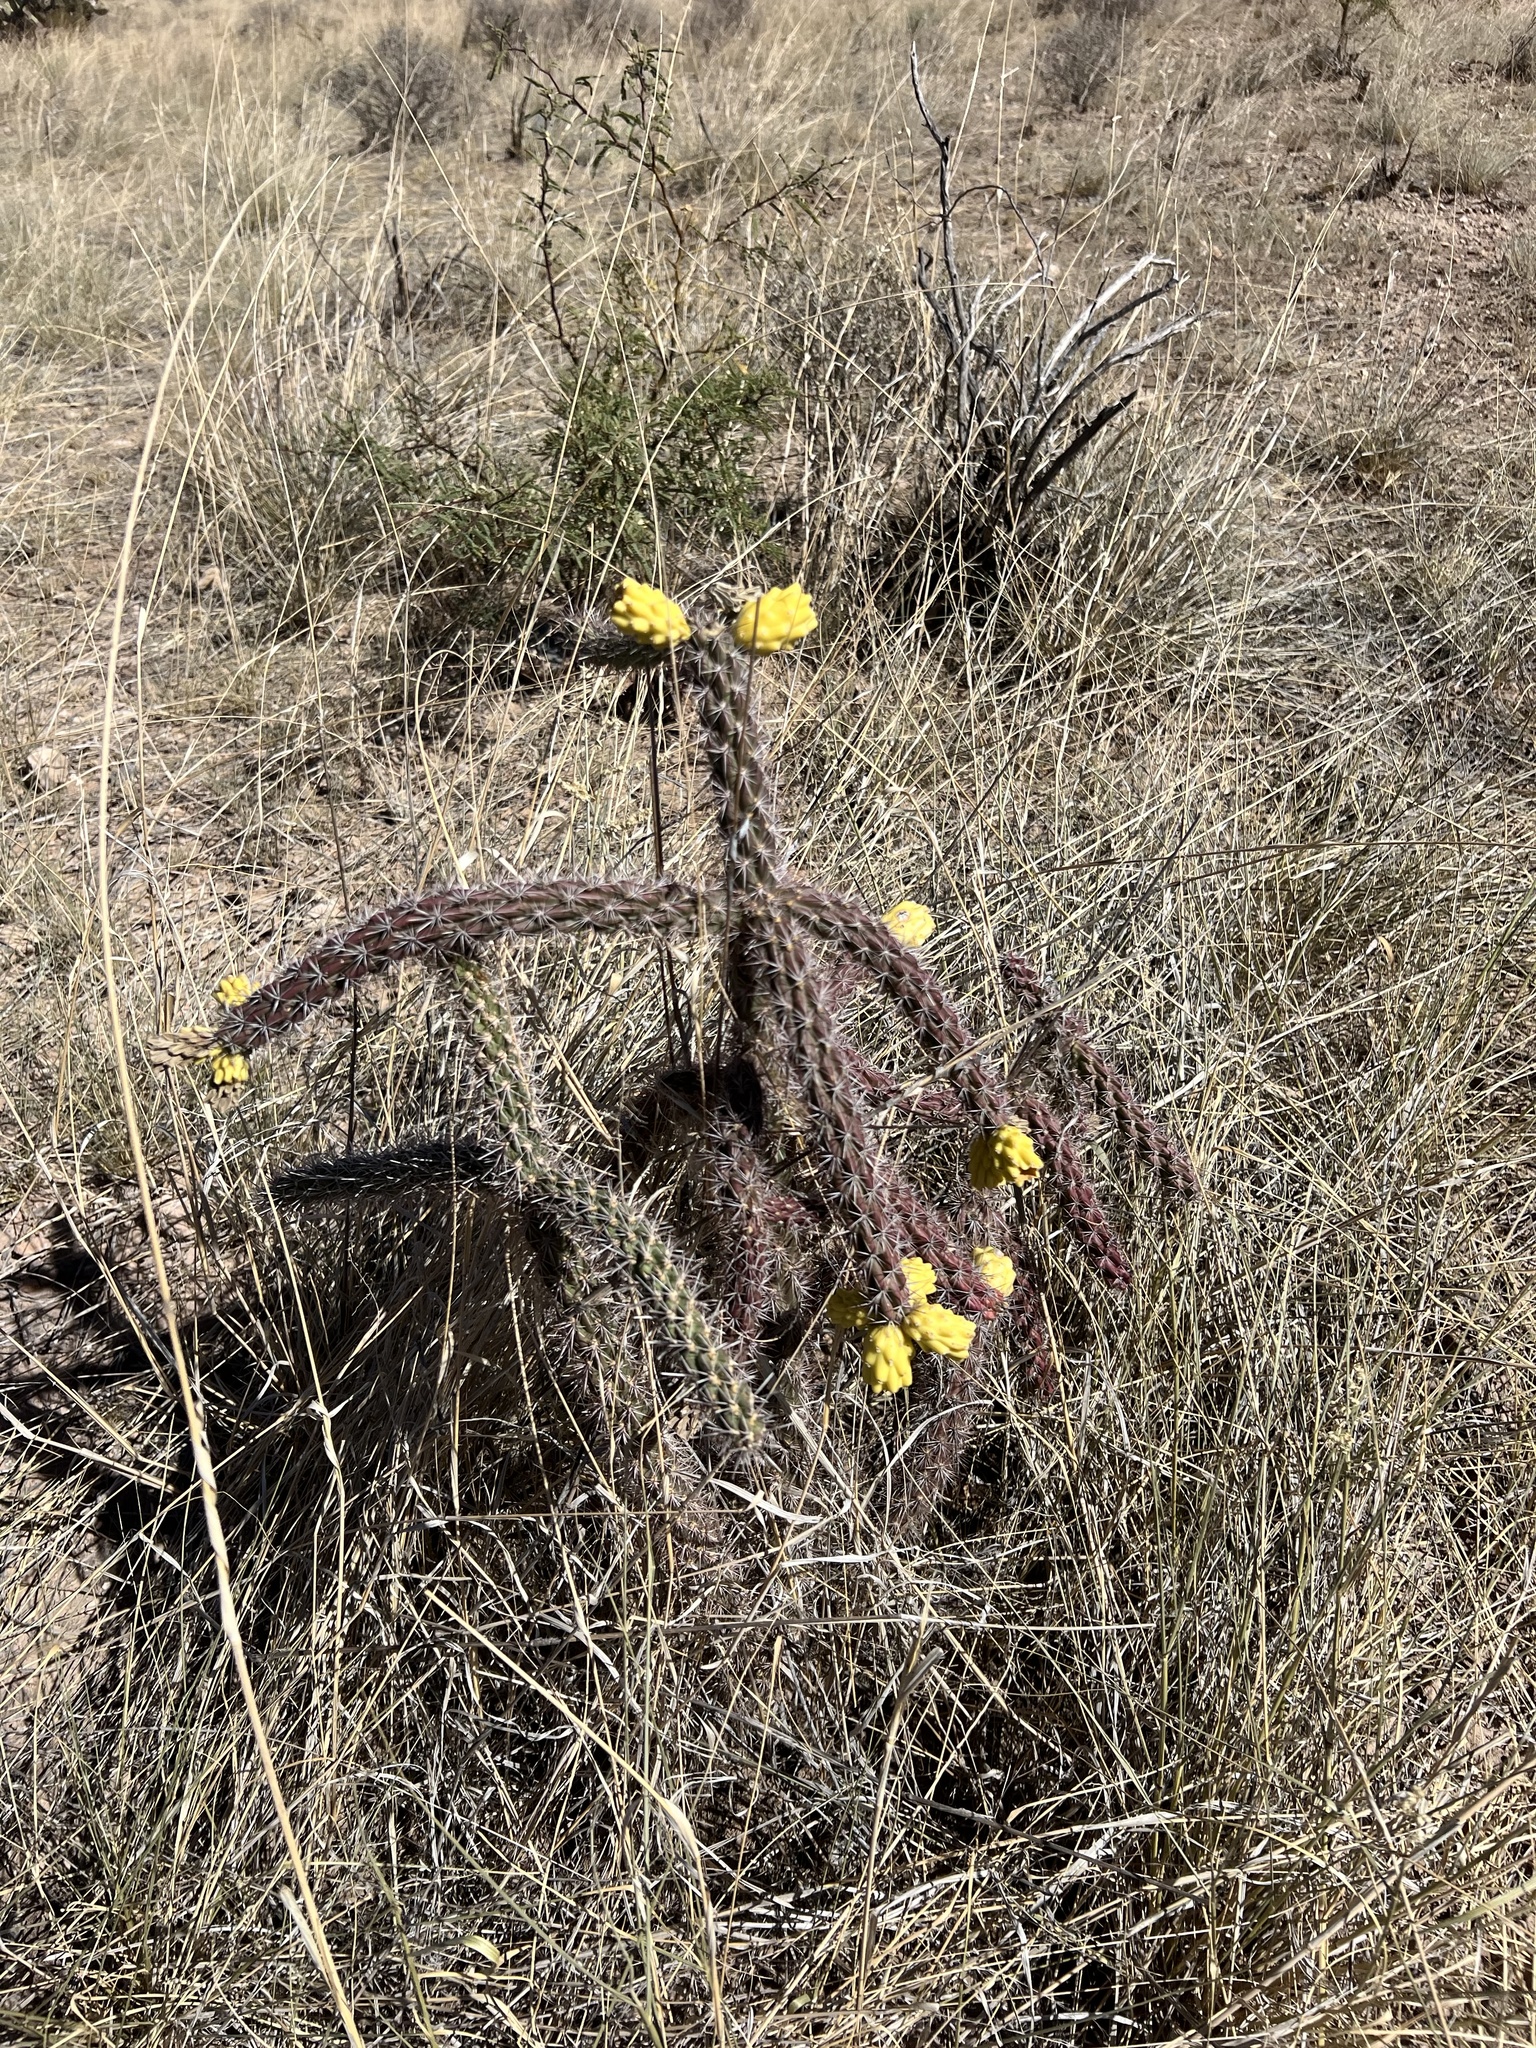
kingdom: Plantae
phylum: Tracheophyta
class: Magnoliopsida
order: Caryophyllales
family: Cactaceae
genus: Cylindropuntia
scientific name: Cylindropuntia imbricata
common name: Candelabrum cactus
